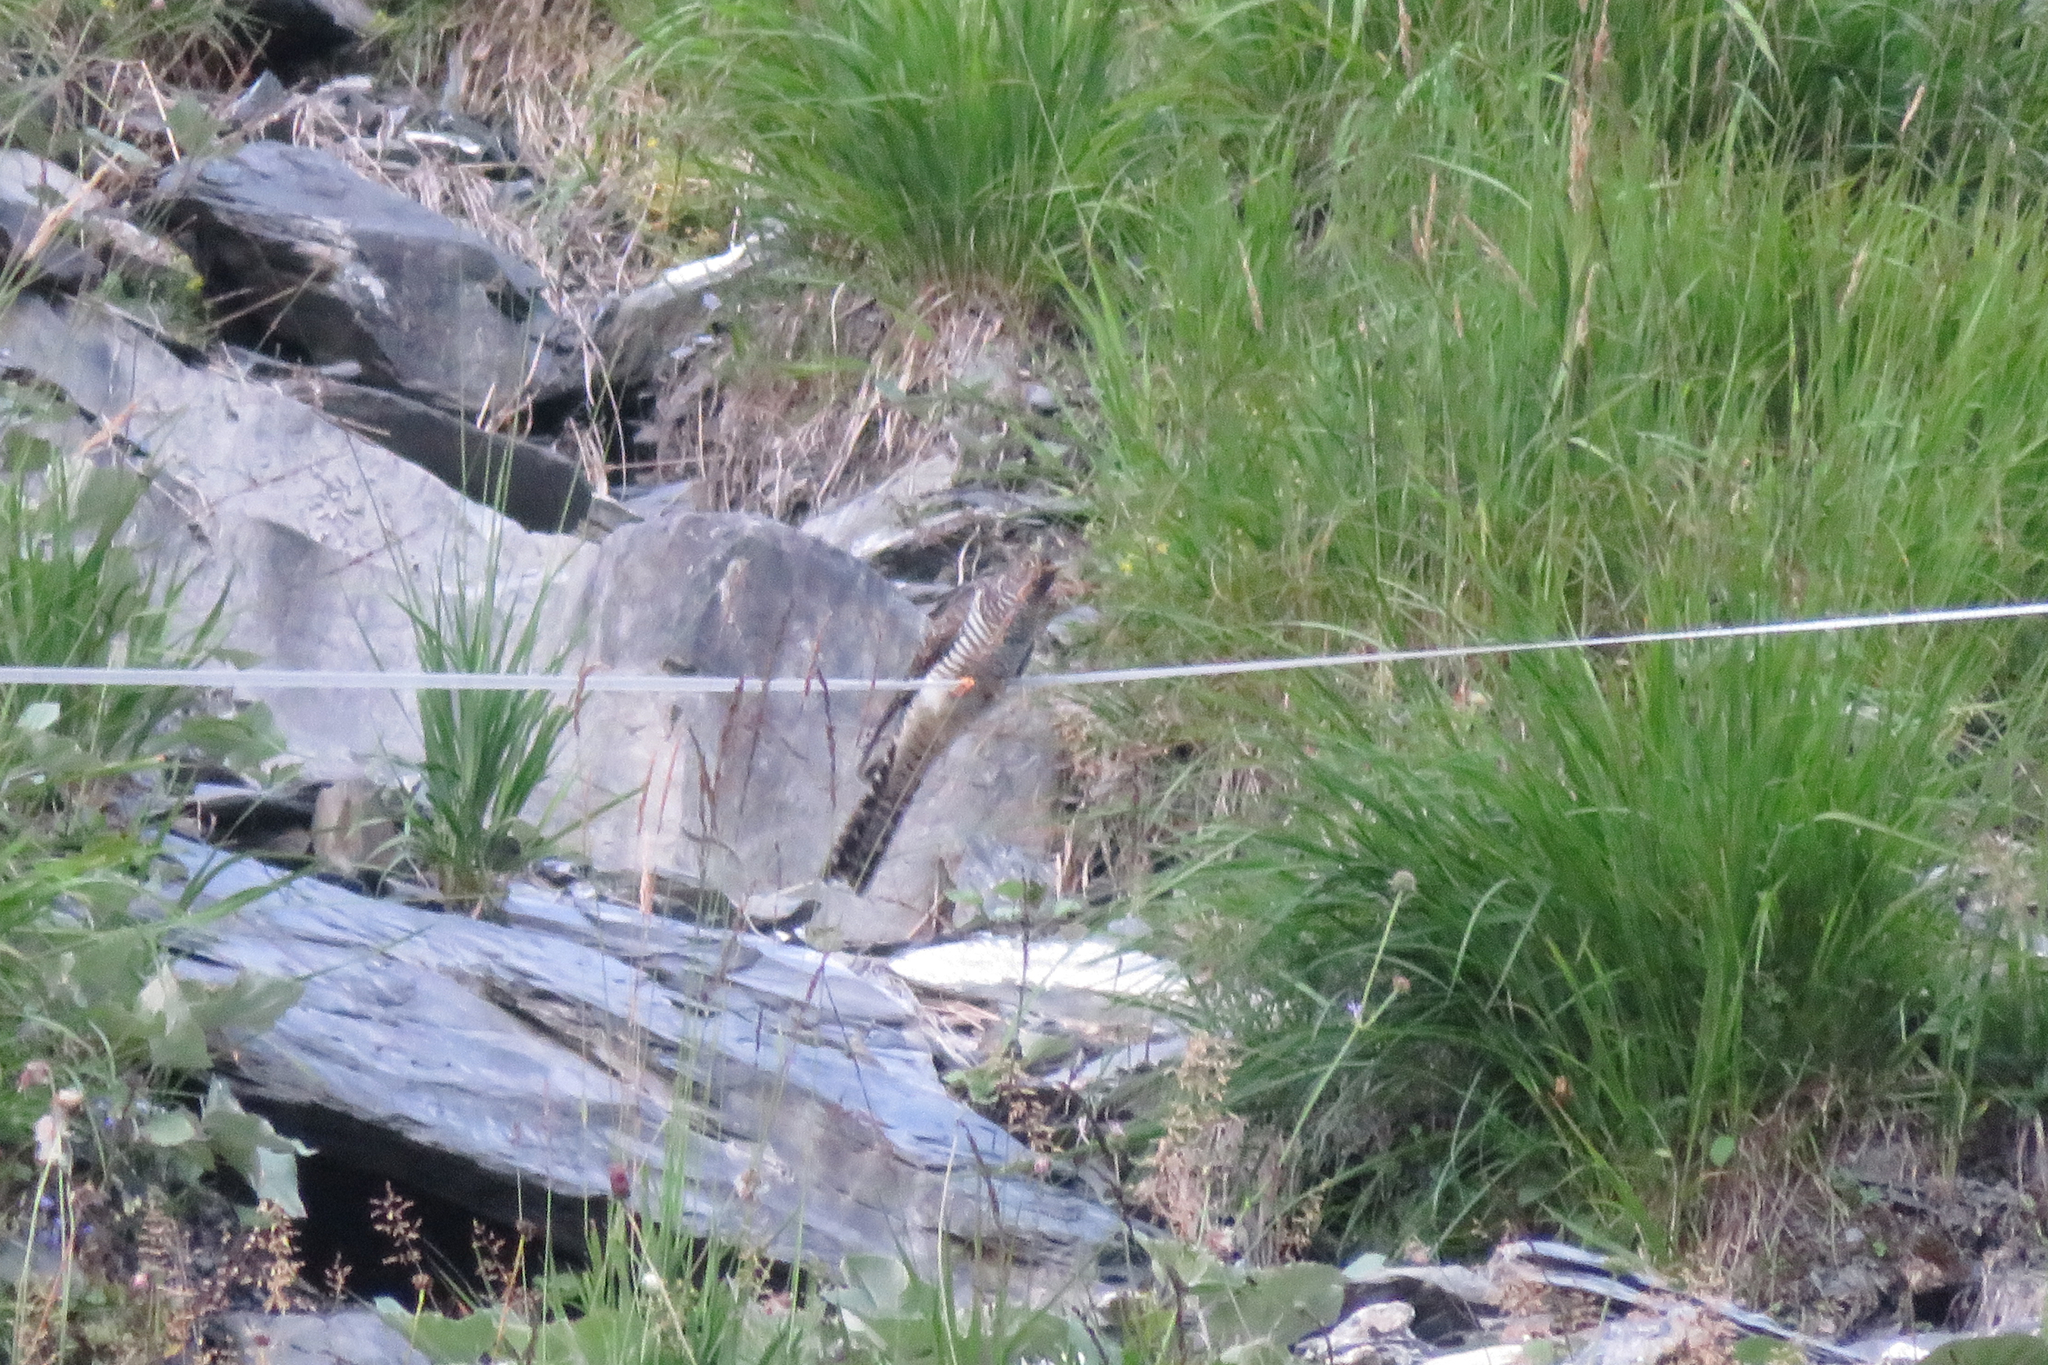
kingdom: Animalia
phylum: Chordata
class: Aves
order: Cuculiformes
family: Cuculidae
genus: Cuculus
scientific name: Cuculus canorus
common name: Common cuckoo
